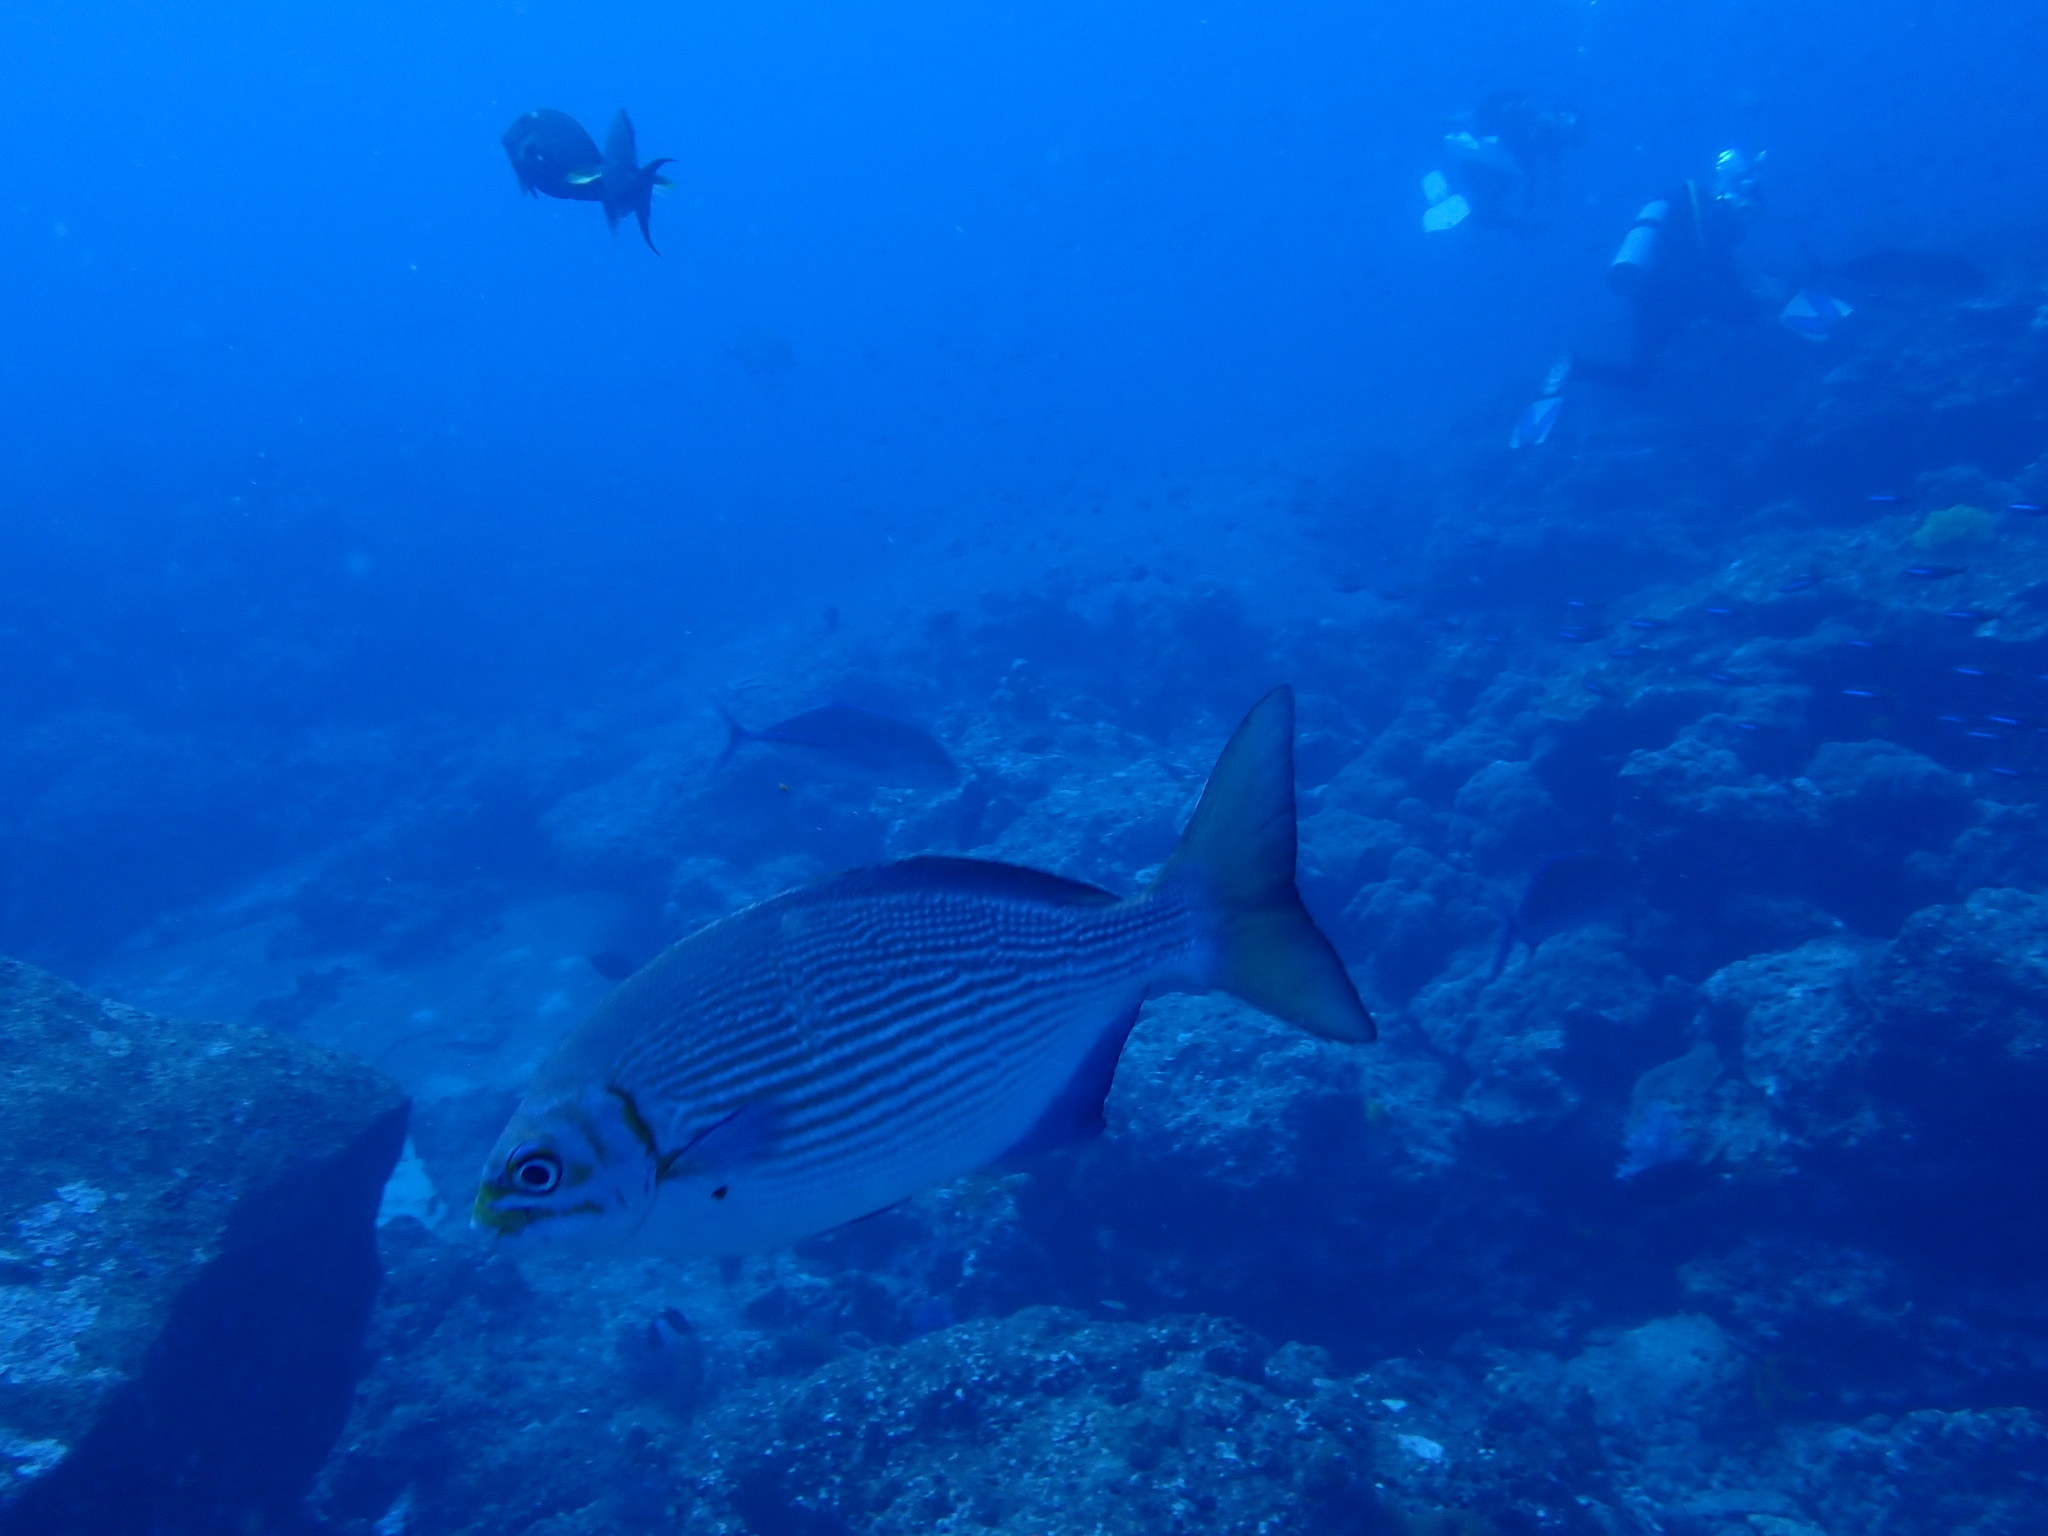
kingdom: Animalia
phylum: Chordata
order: Perciformes
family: Kyphosidae
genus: Kyphosus
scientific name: Kyphosus vaigiensis
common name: Brassy chub
